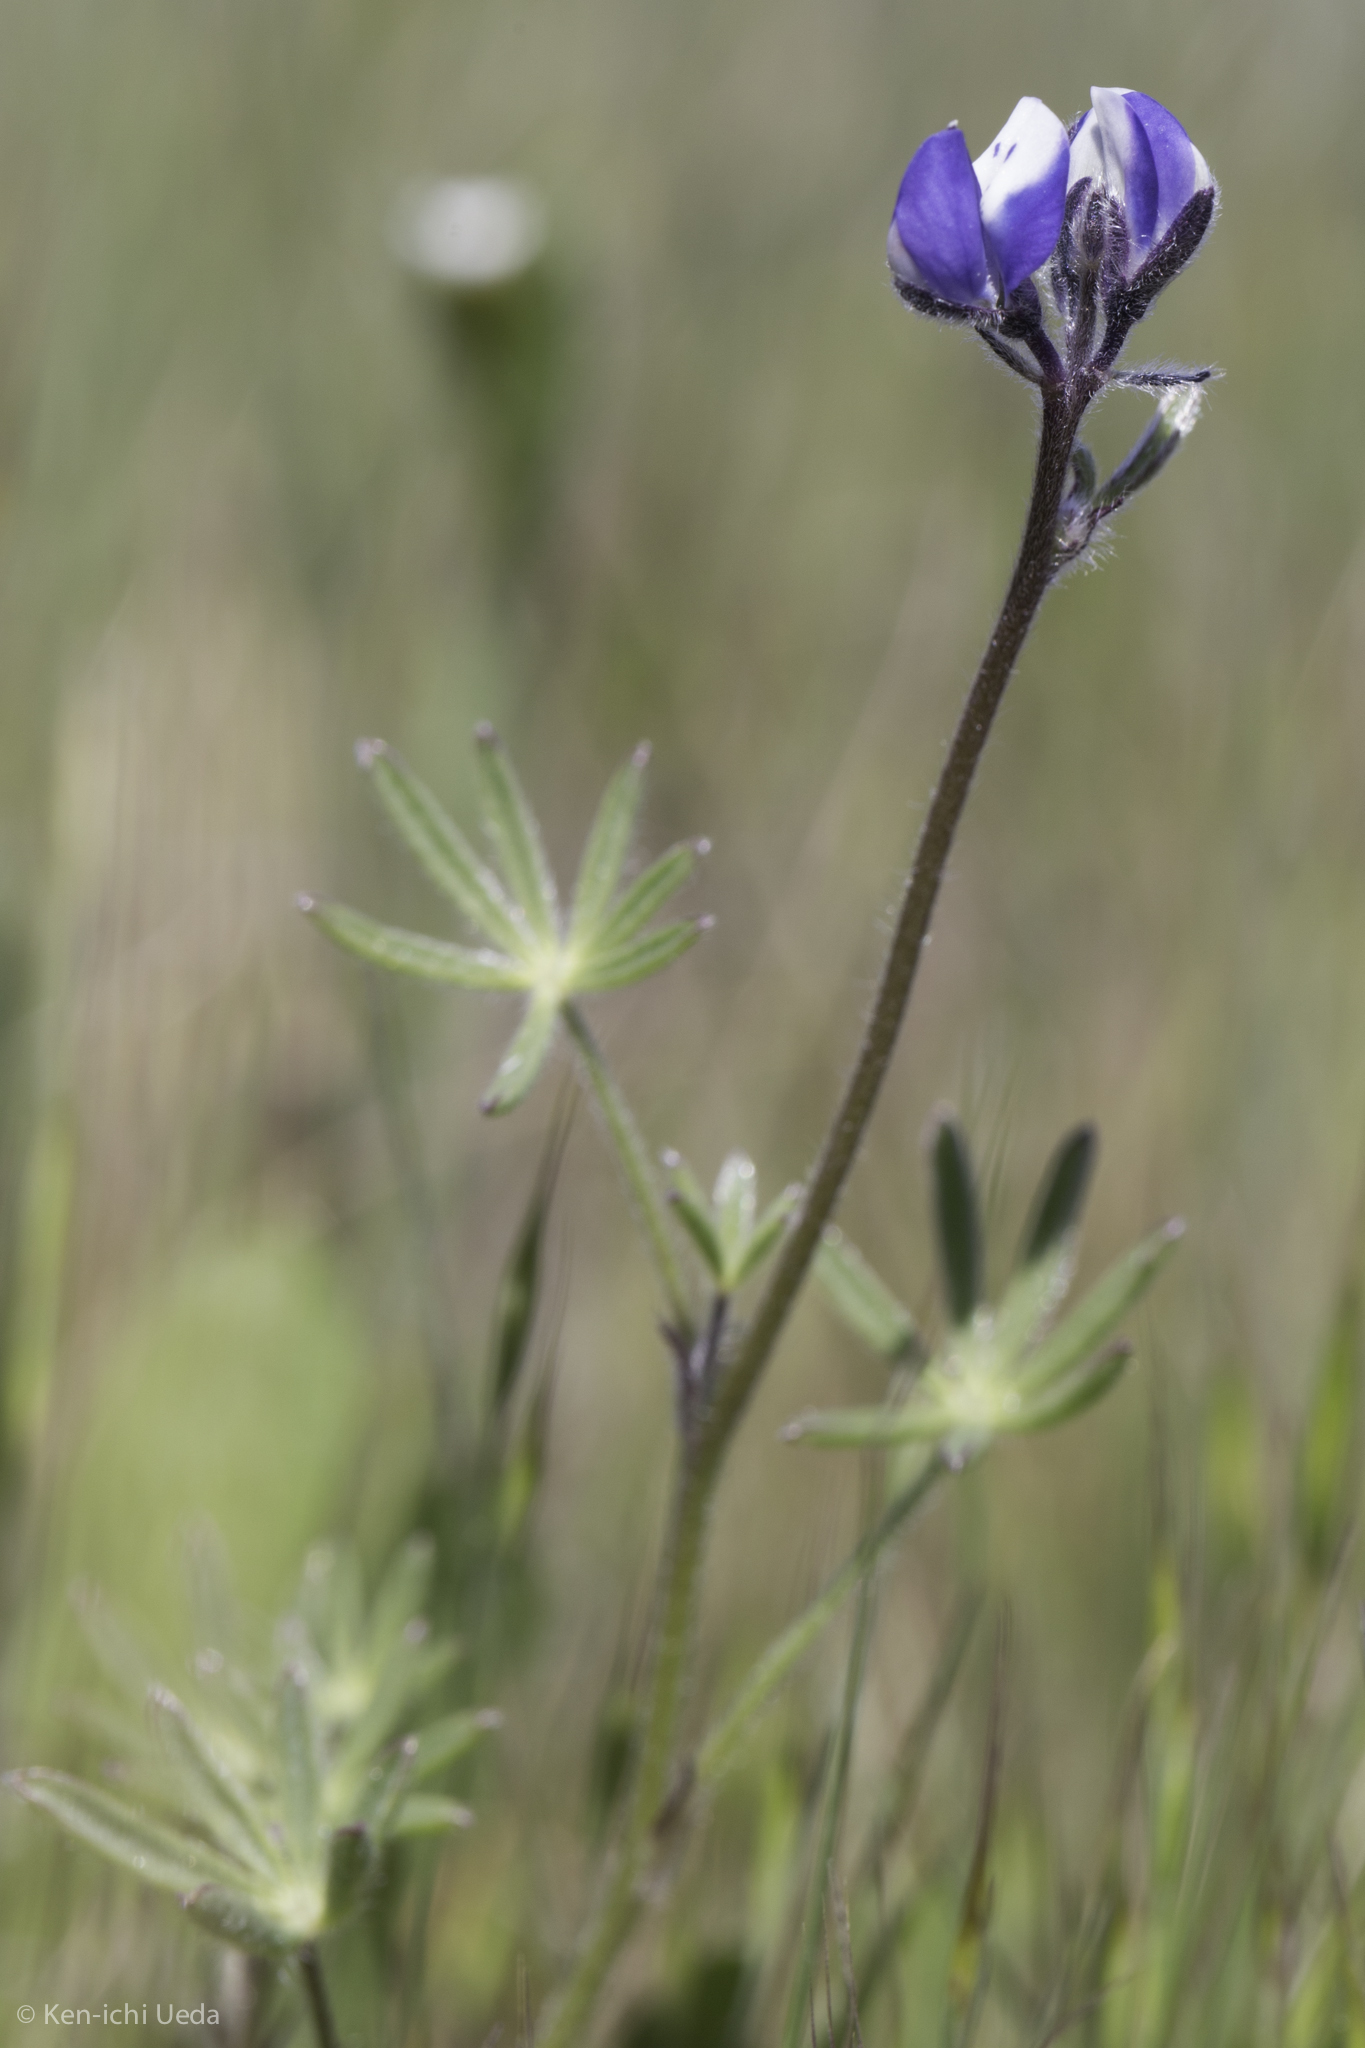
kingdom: Plantae
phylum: Tracheophyta
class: Magnoliopsida
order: Fabales
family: Fabaceae
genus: Lupinus
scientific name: Lupinus bicolor
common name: Miniature lupine
